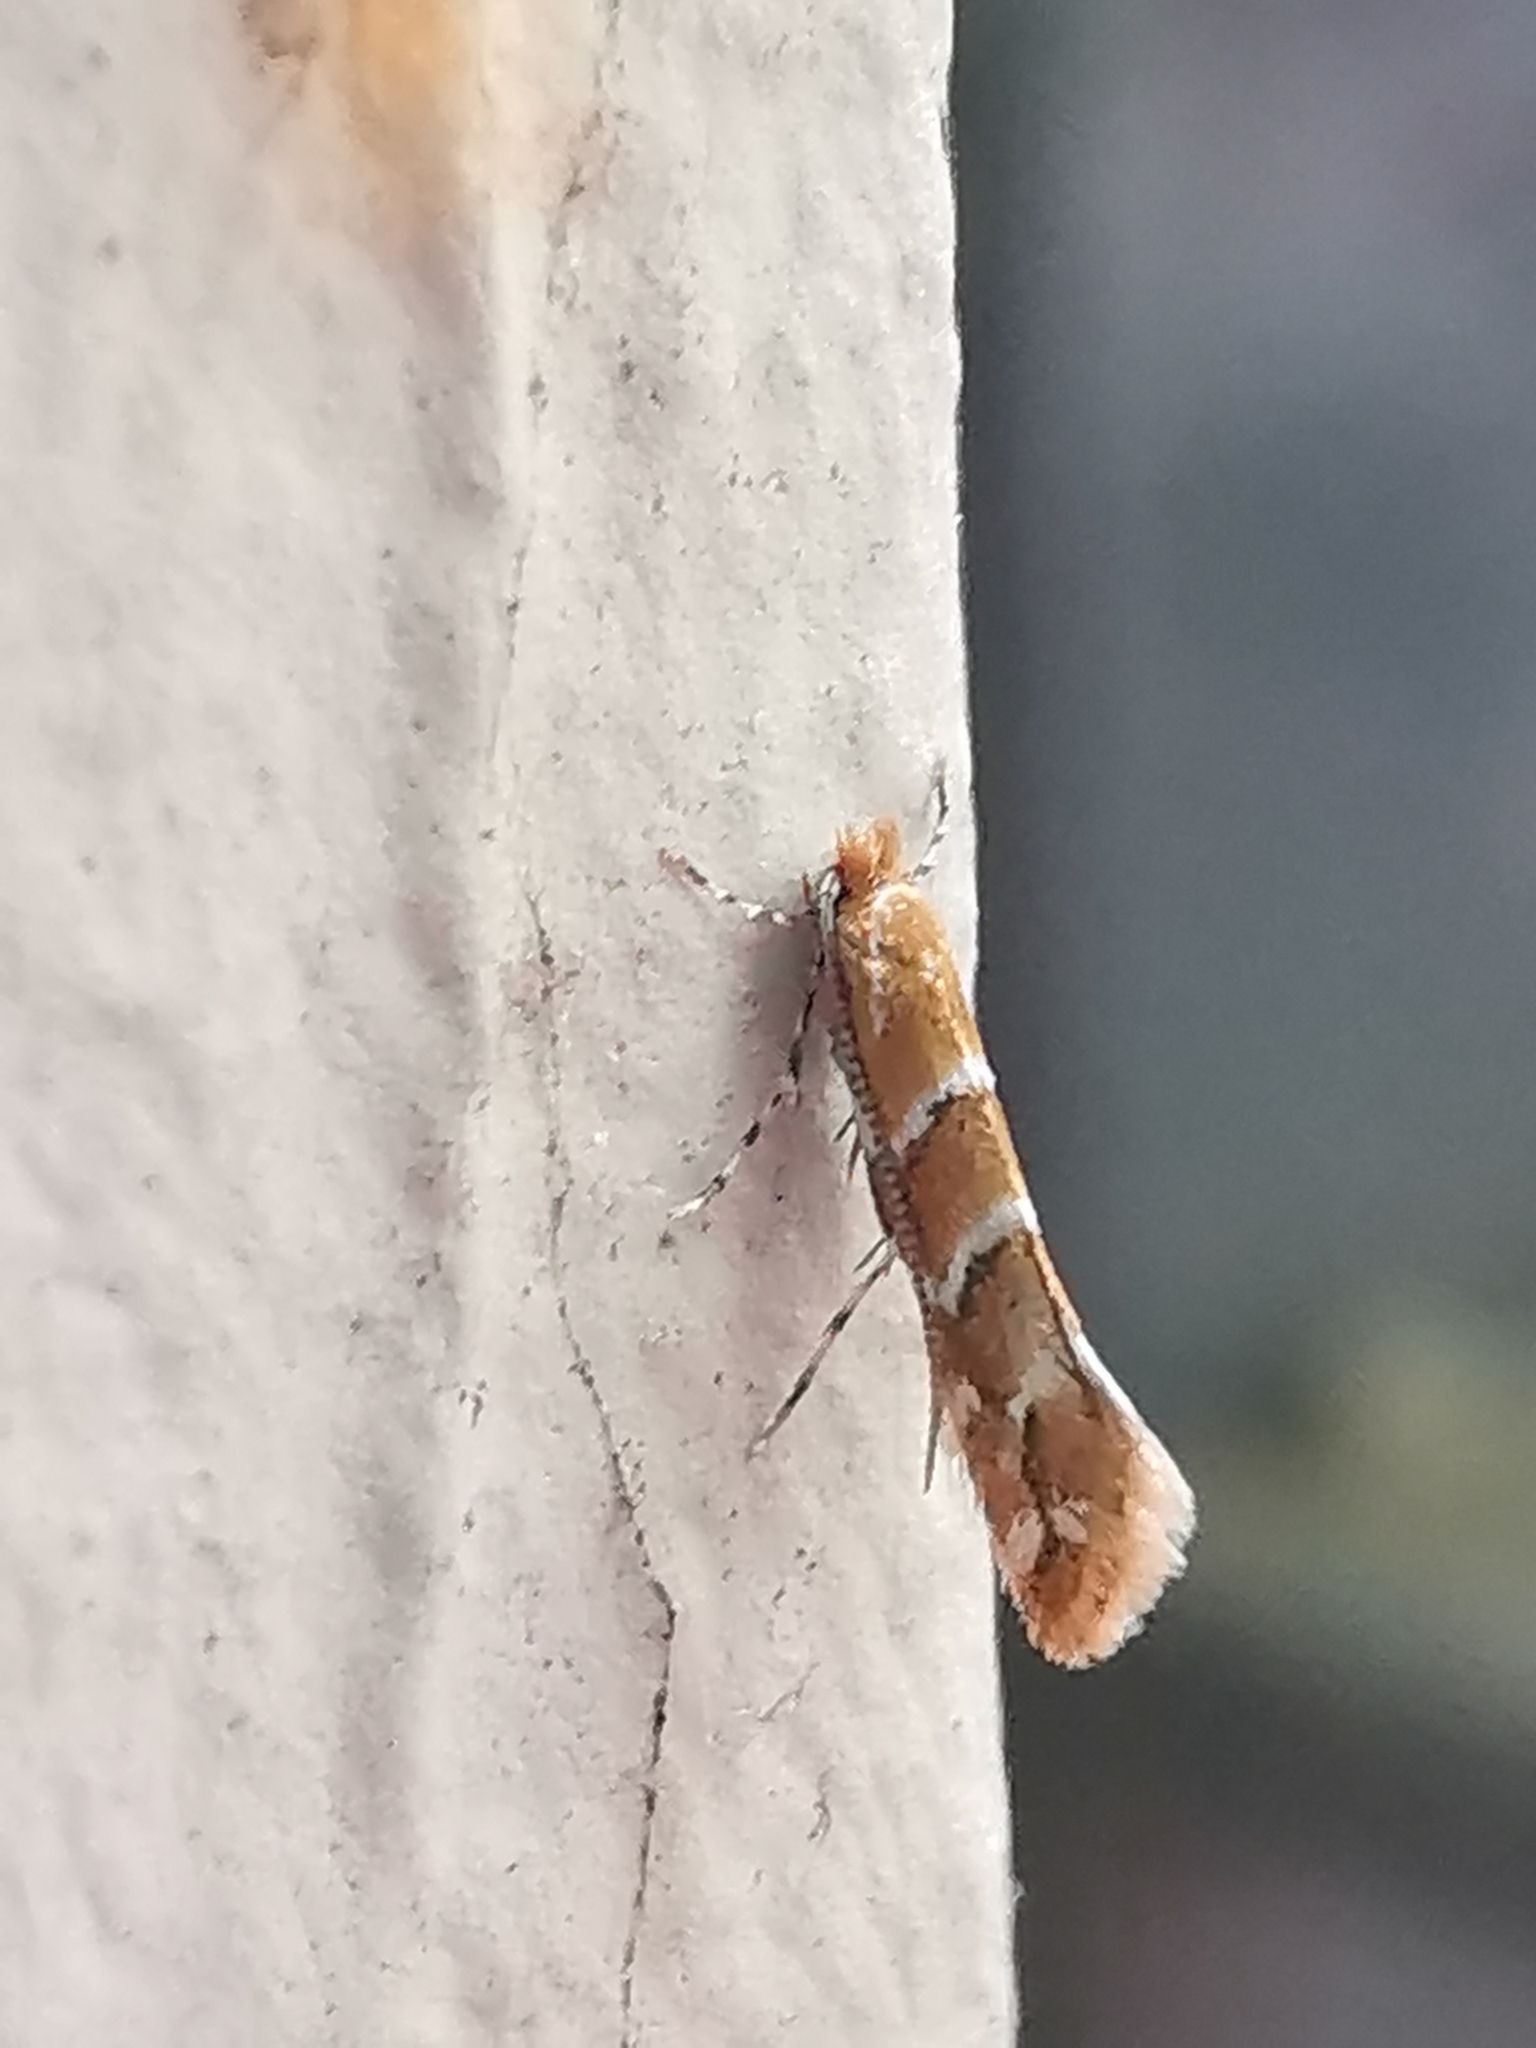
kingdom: Animalia
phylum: Arthropoda
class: Insecta
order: Lepidoptera
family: Gracillariidae
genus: Cameraria
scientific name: Cameraria ohridella
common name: Horse-chestnut leaf-miner
